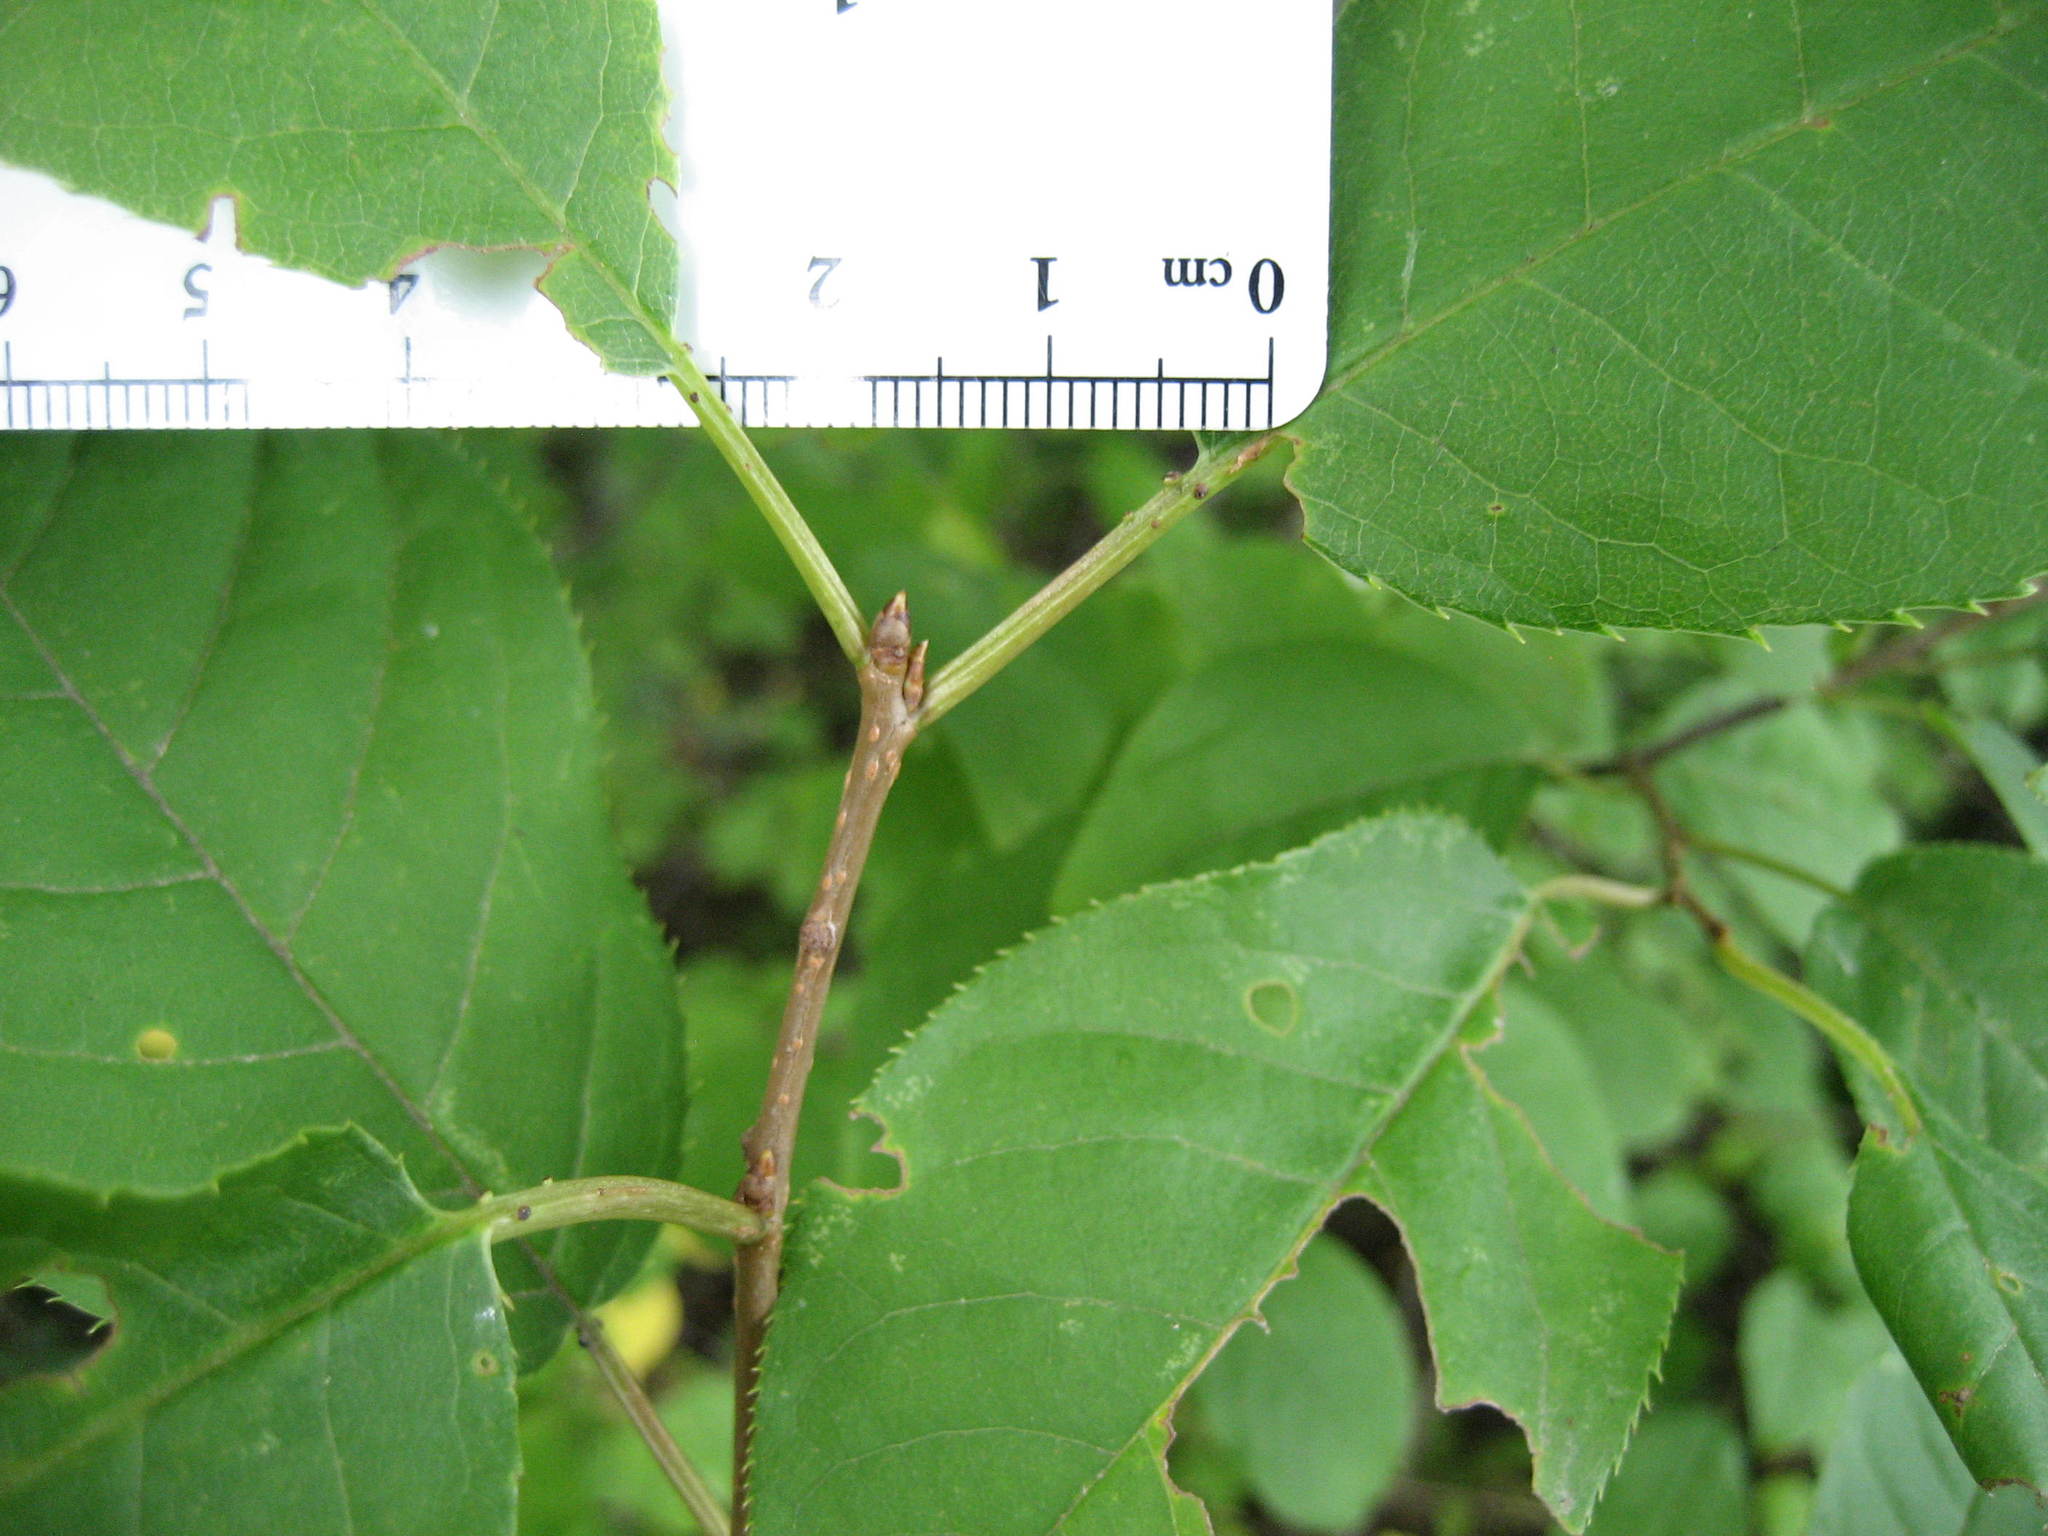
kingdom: Plantae
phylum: Tracheophyta
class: Magnoliopsida
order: Rosales
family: Rosaceae
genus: Prunus
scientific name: Prunus virginiana
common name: Chokecherry
